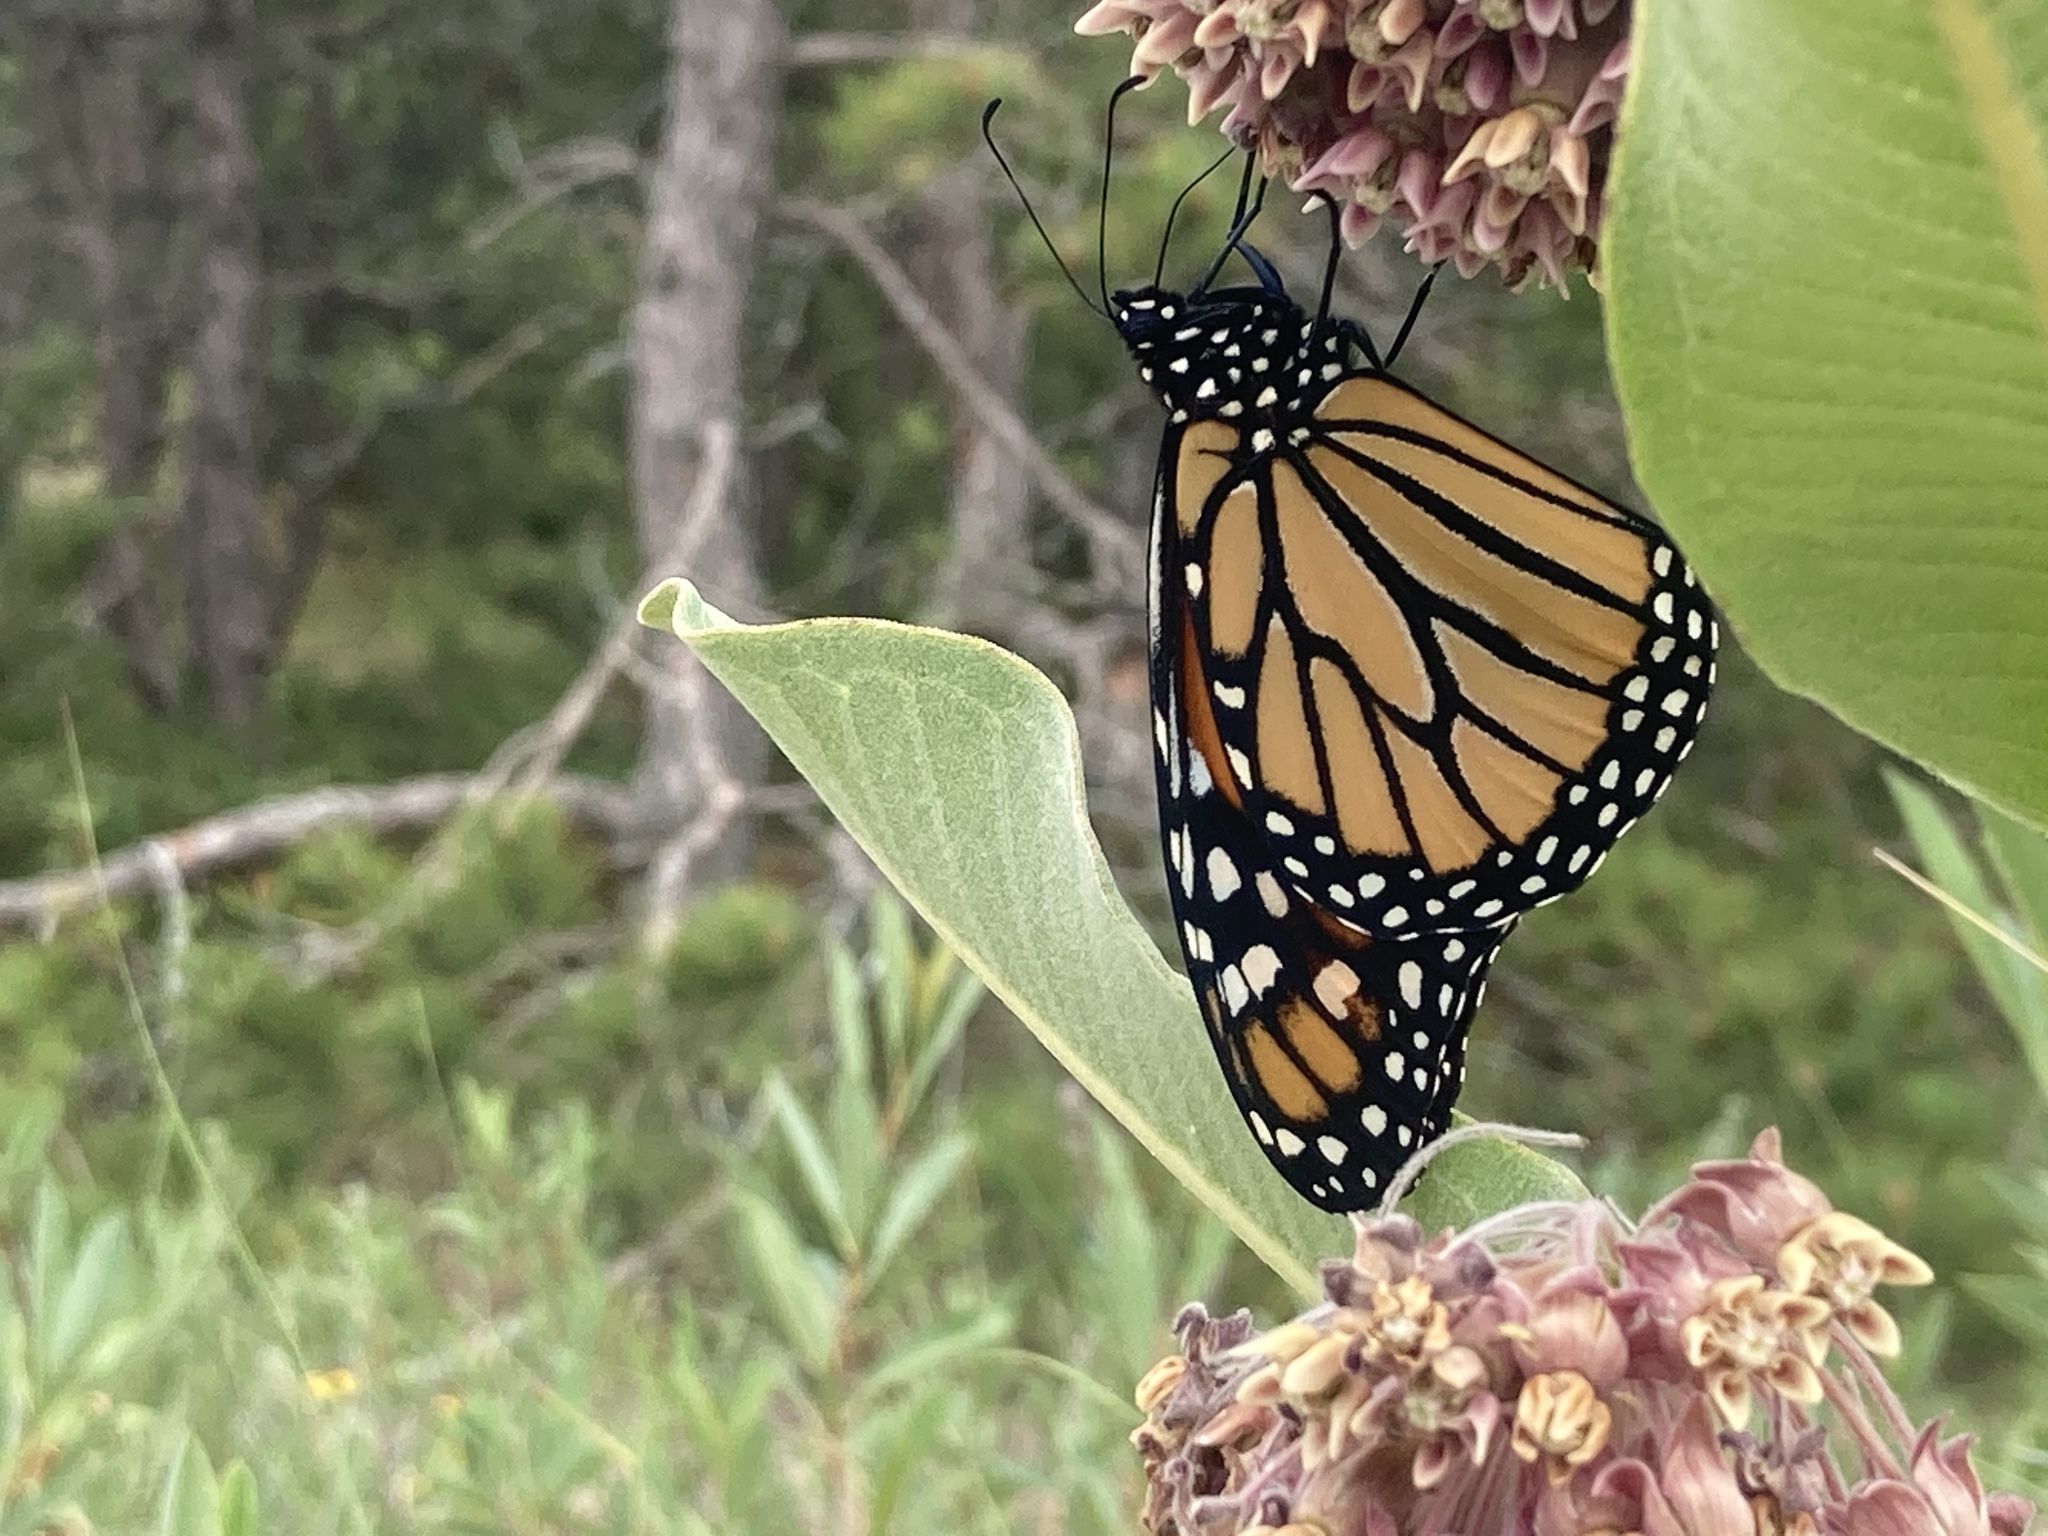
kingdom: Animalia
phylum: Arthropoda
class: Insecta
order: Lepidoptera
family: Nymphalidae
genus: Danaus
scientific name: Danaus plexippus
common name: Monarch
